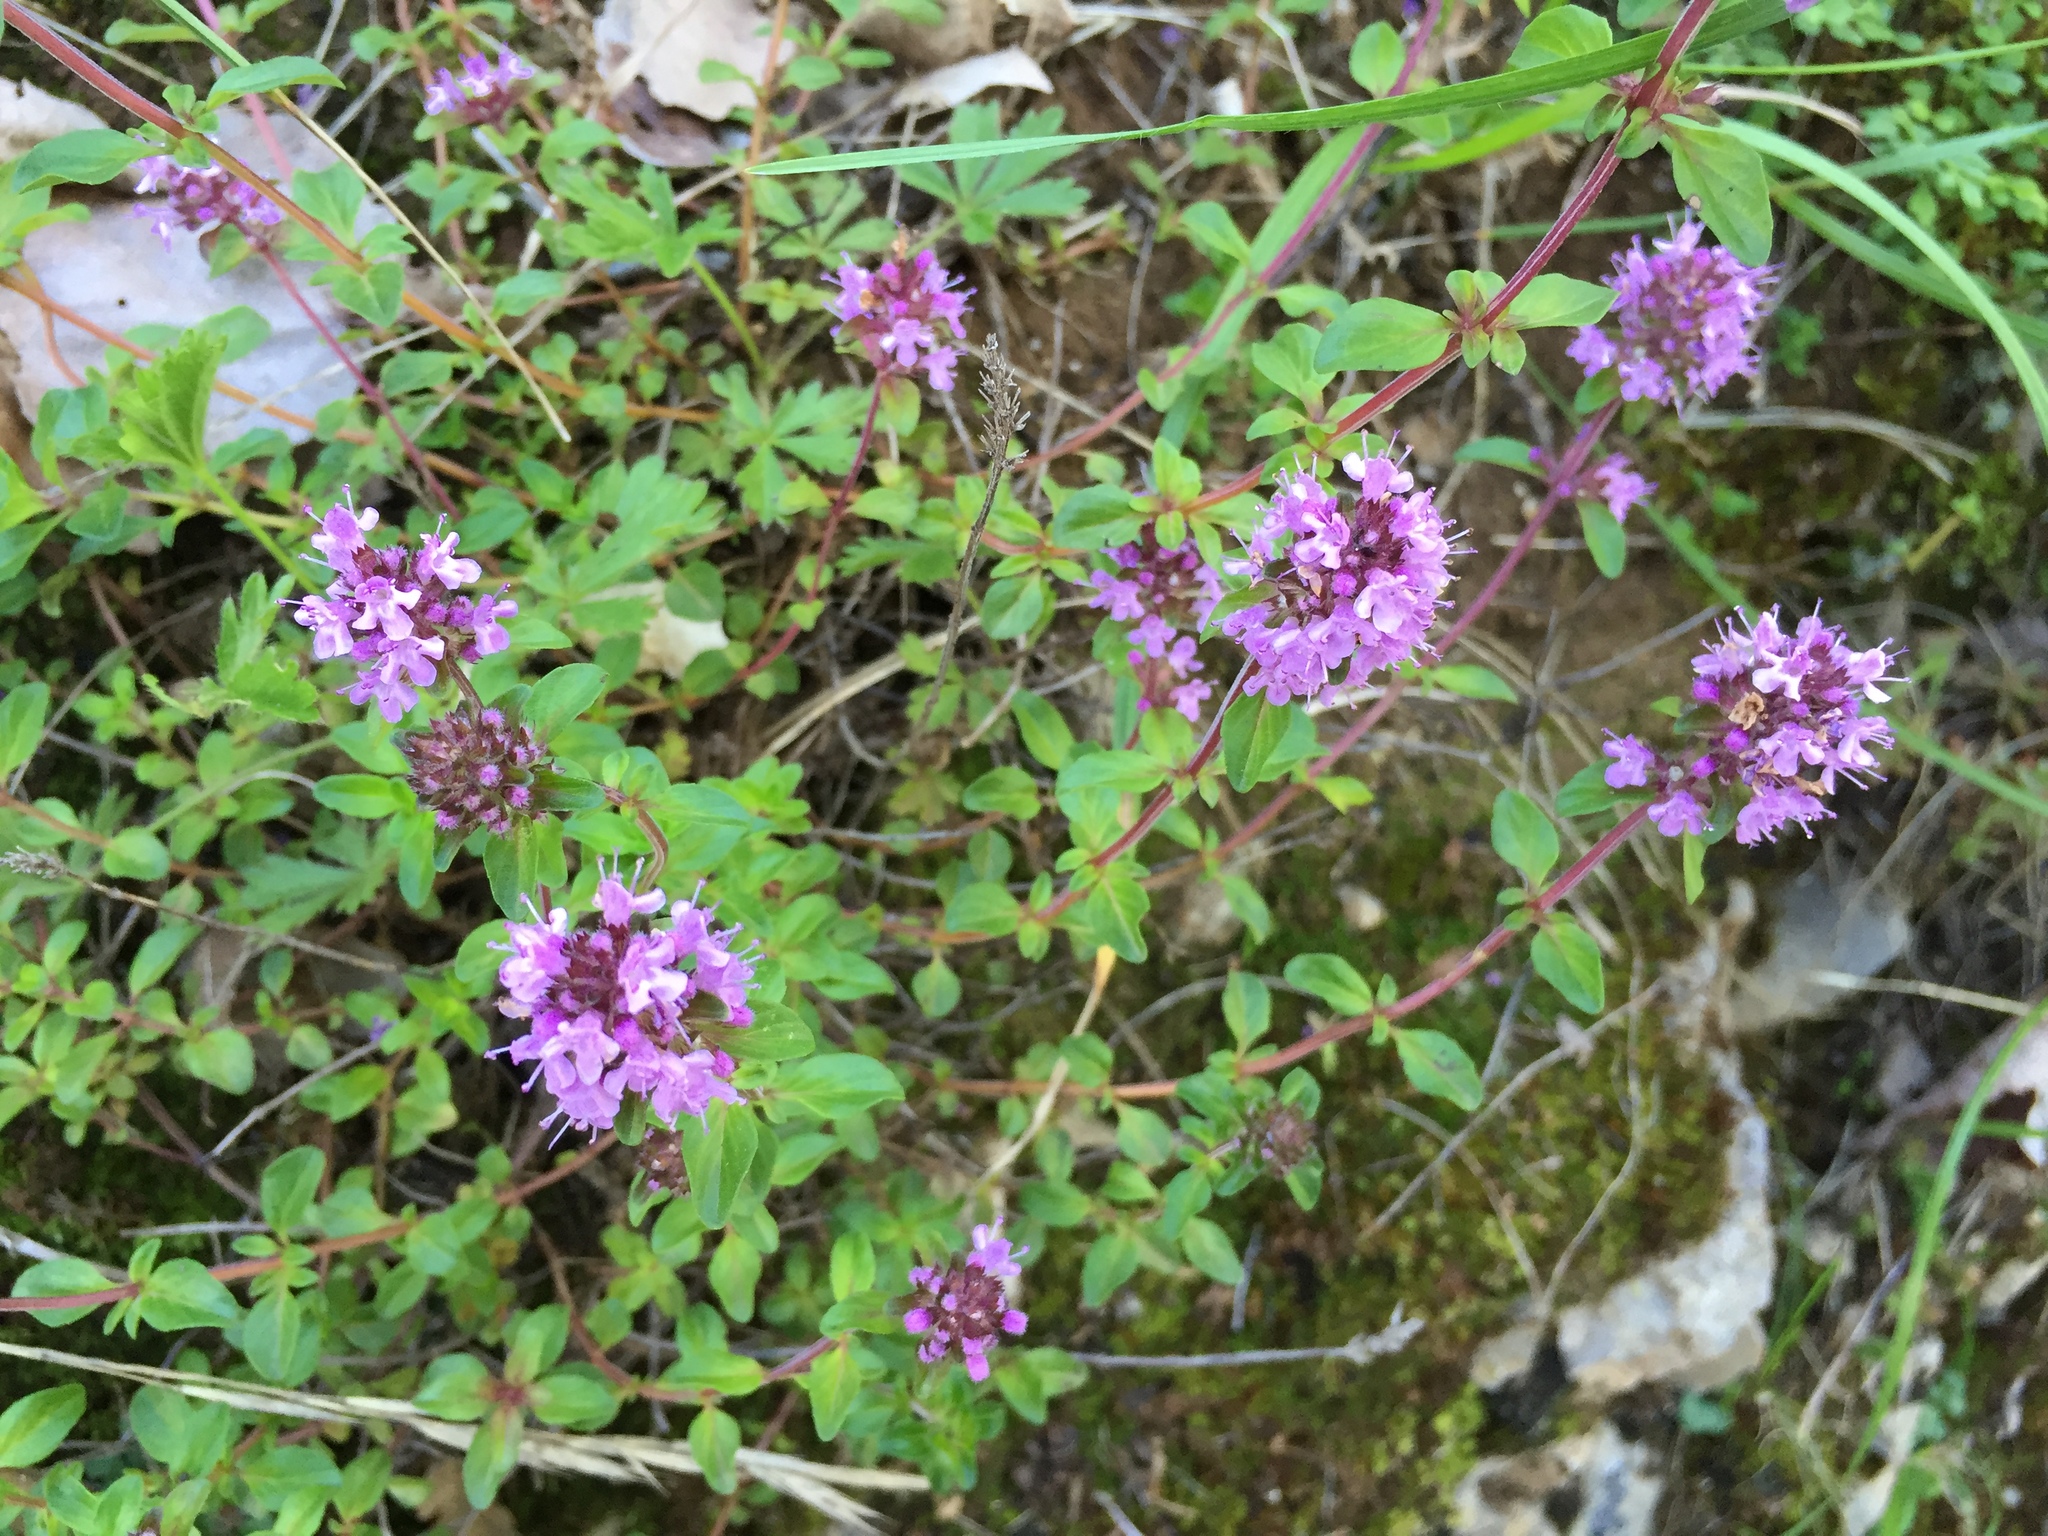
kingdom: Plantae
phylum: Tracheophyta
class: Magnoliopsida
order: Lamiales
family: Lamiaceae
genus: Thymus
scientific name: Thymus pulegioides
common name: Large thyme
